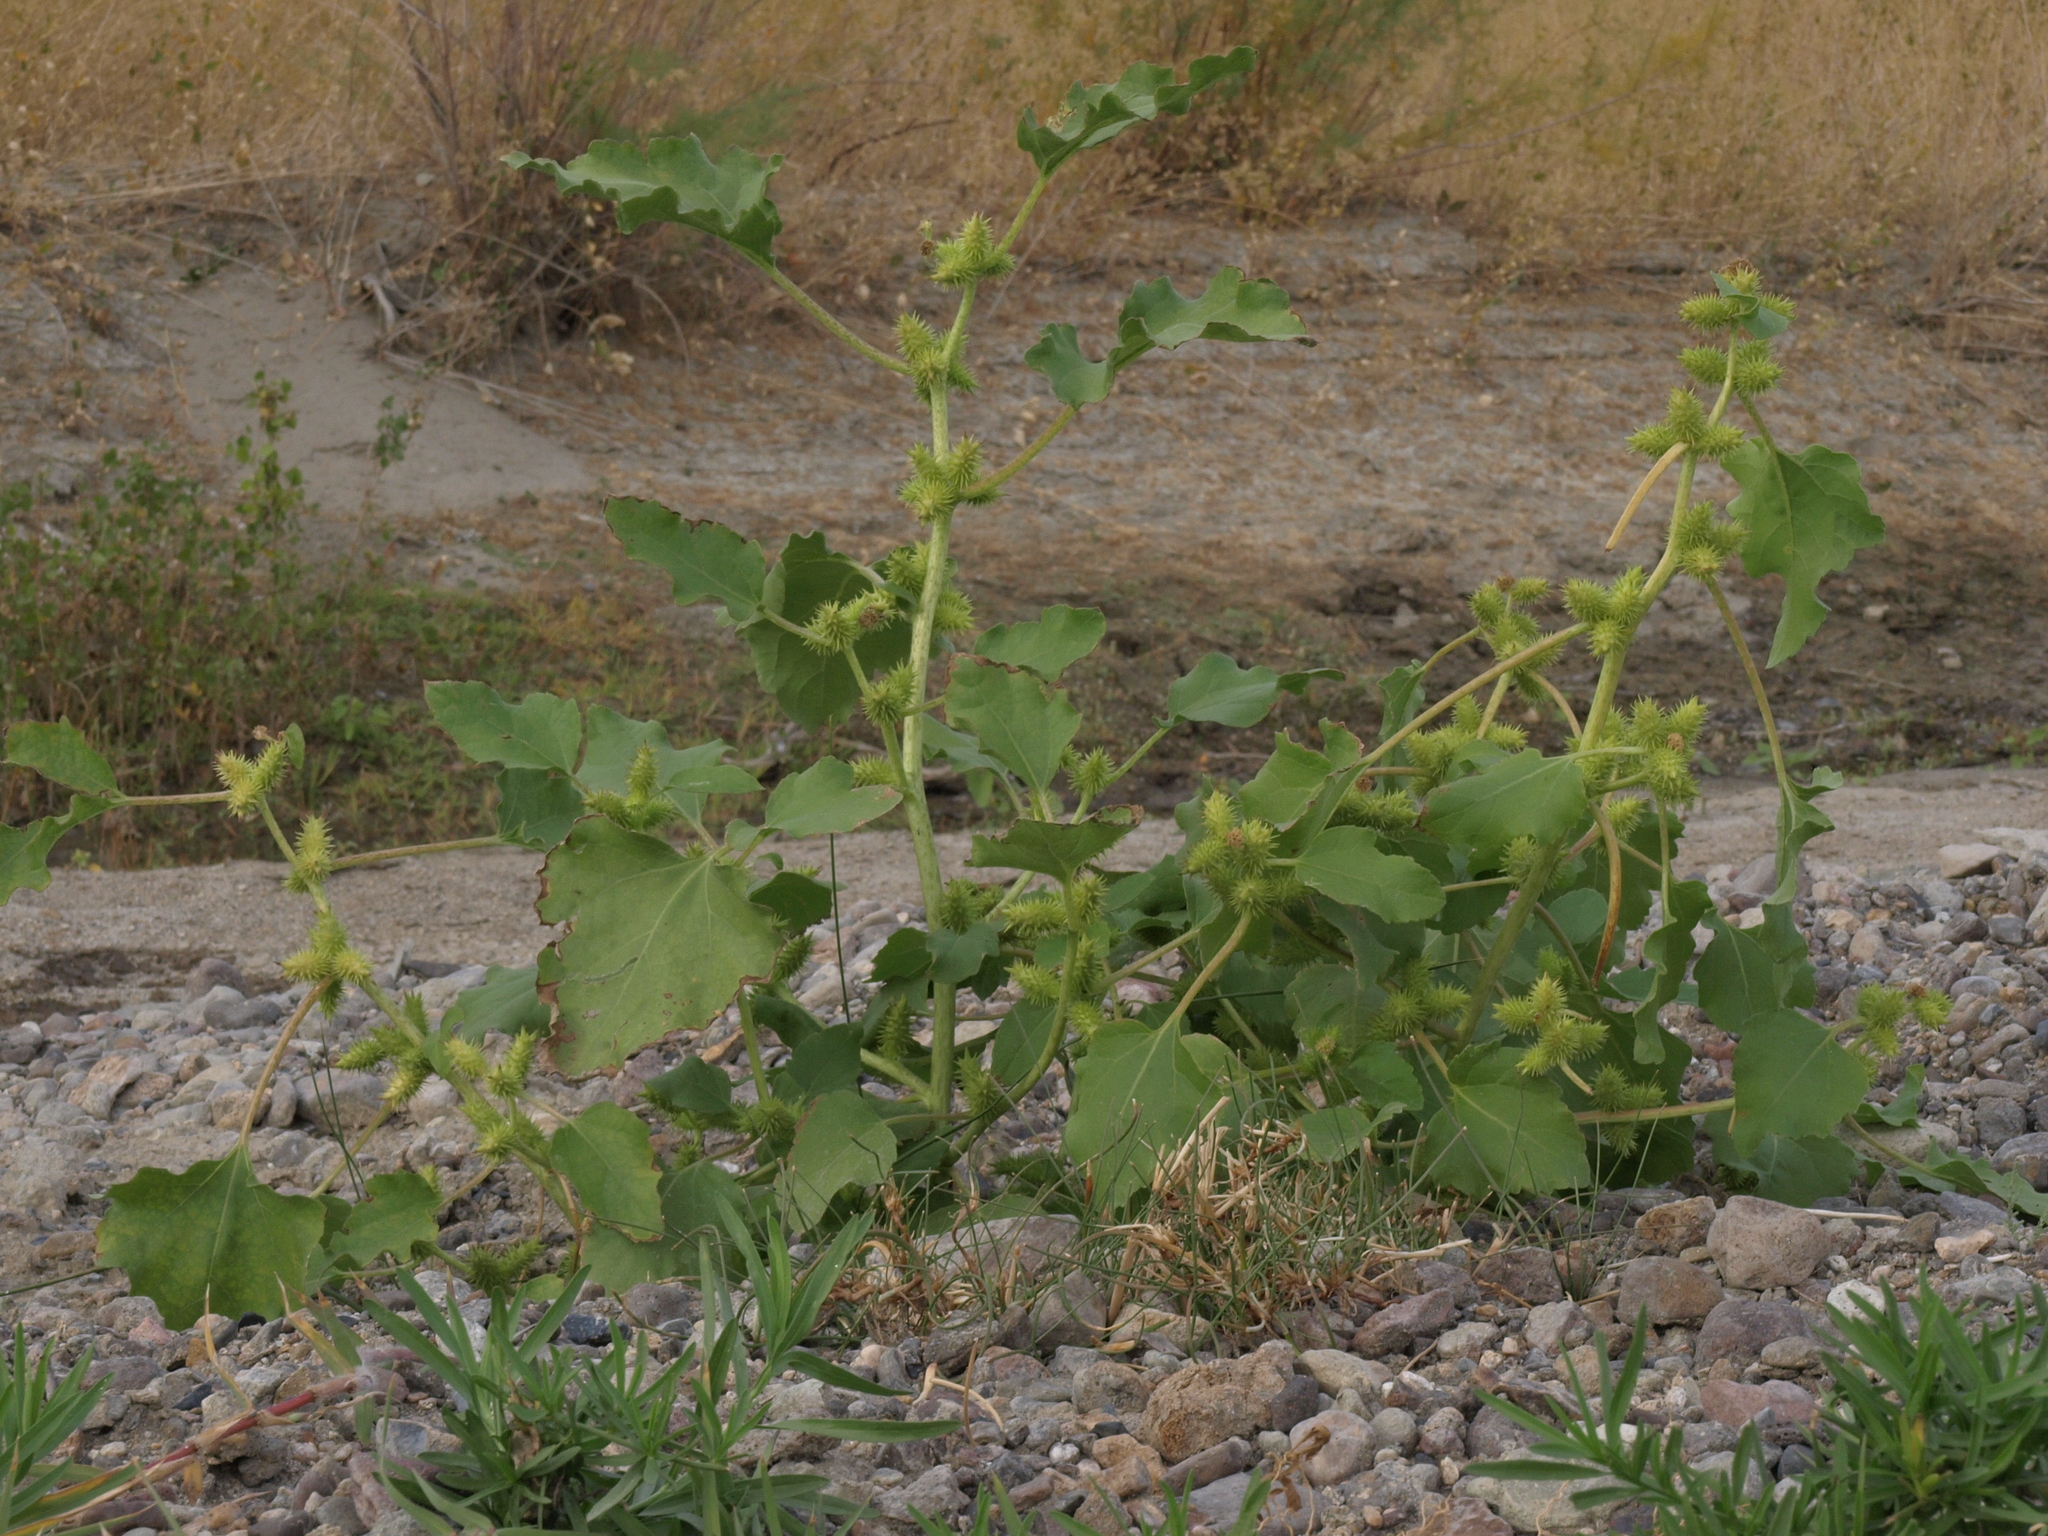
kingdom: Plantae
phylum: Tracheophyta
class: Magnoliopsida
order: Asterales
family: Asteraceae
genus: Xanthium
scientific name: Xanthium strumarium
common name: Rough cocklebur
